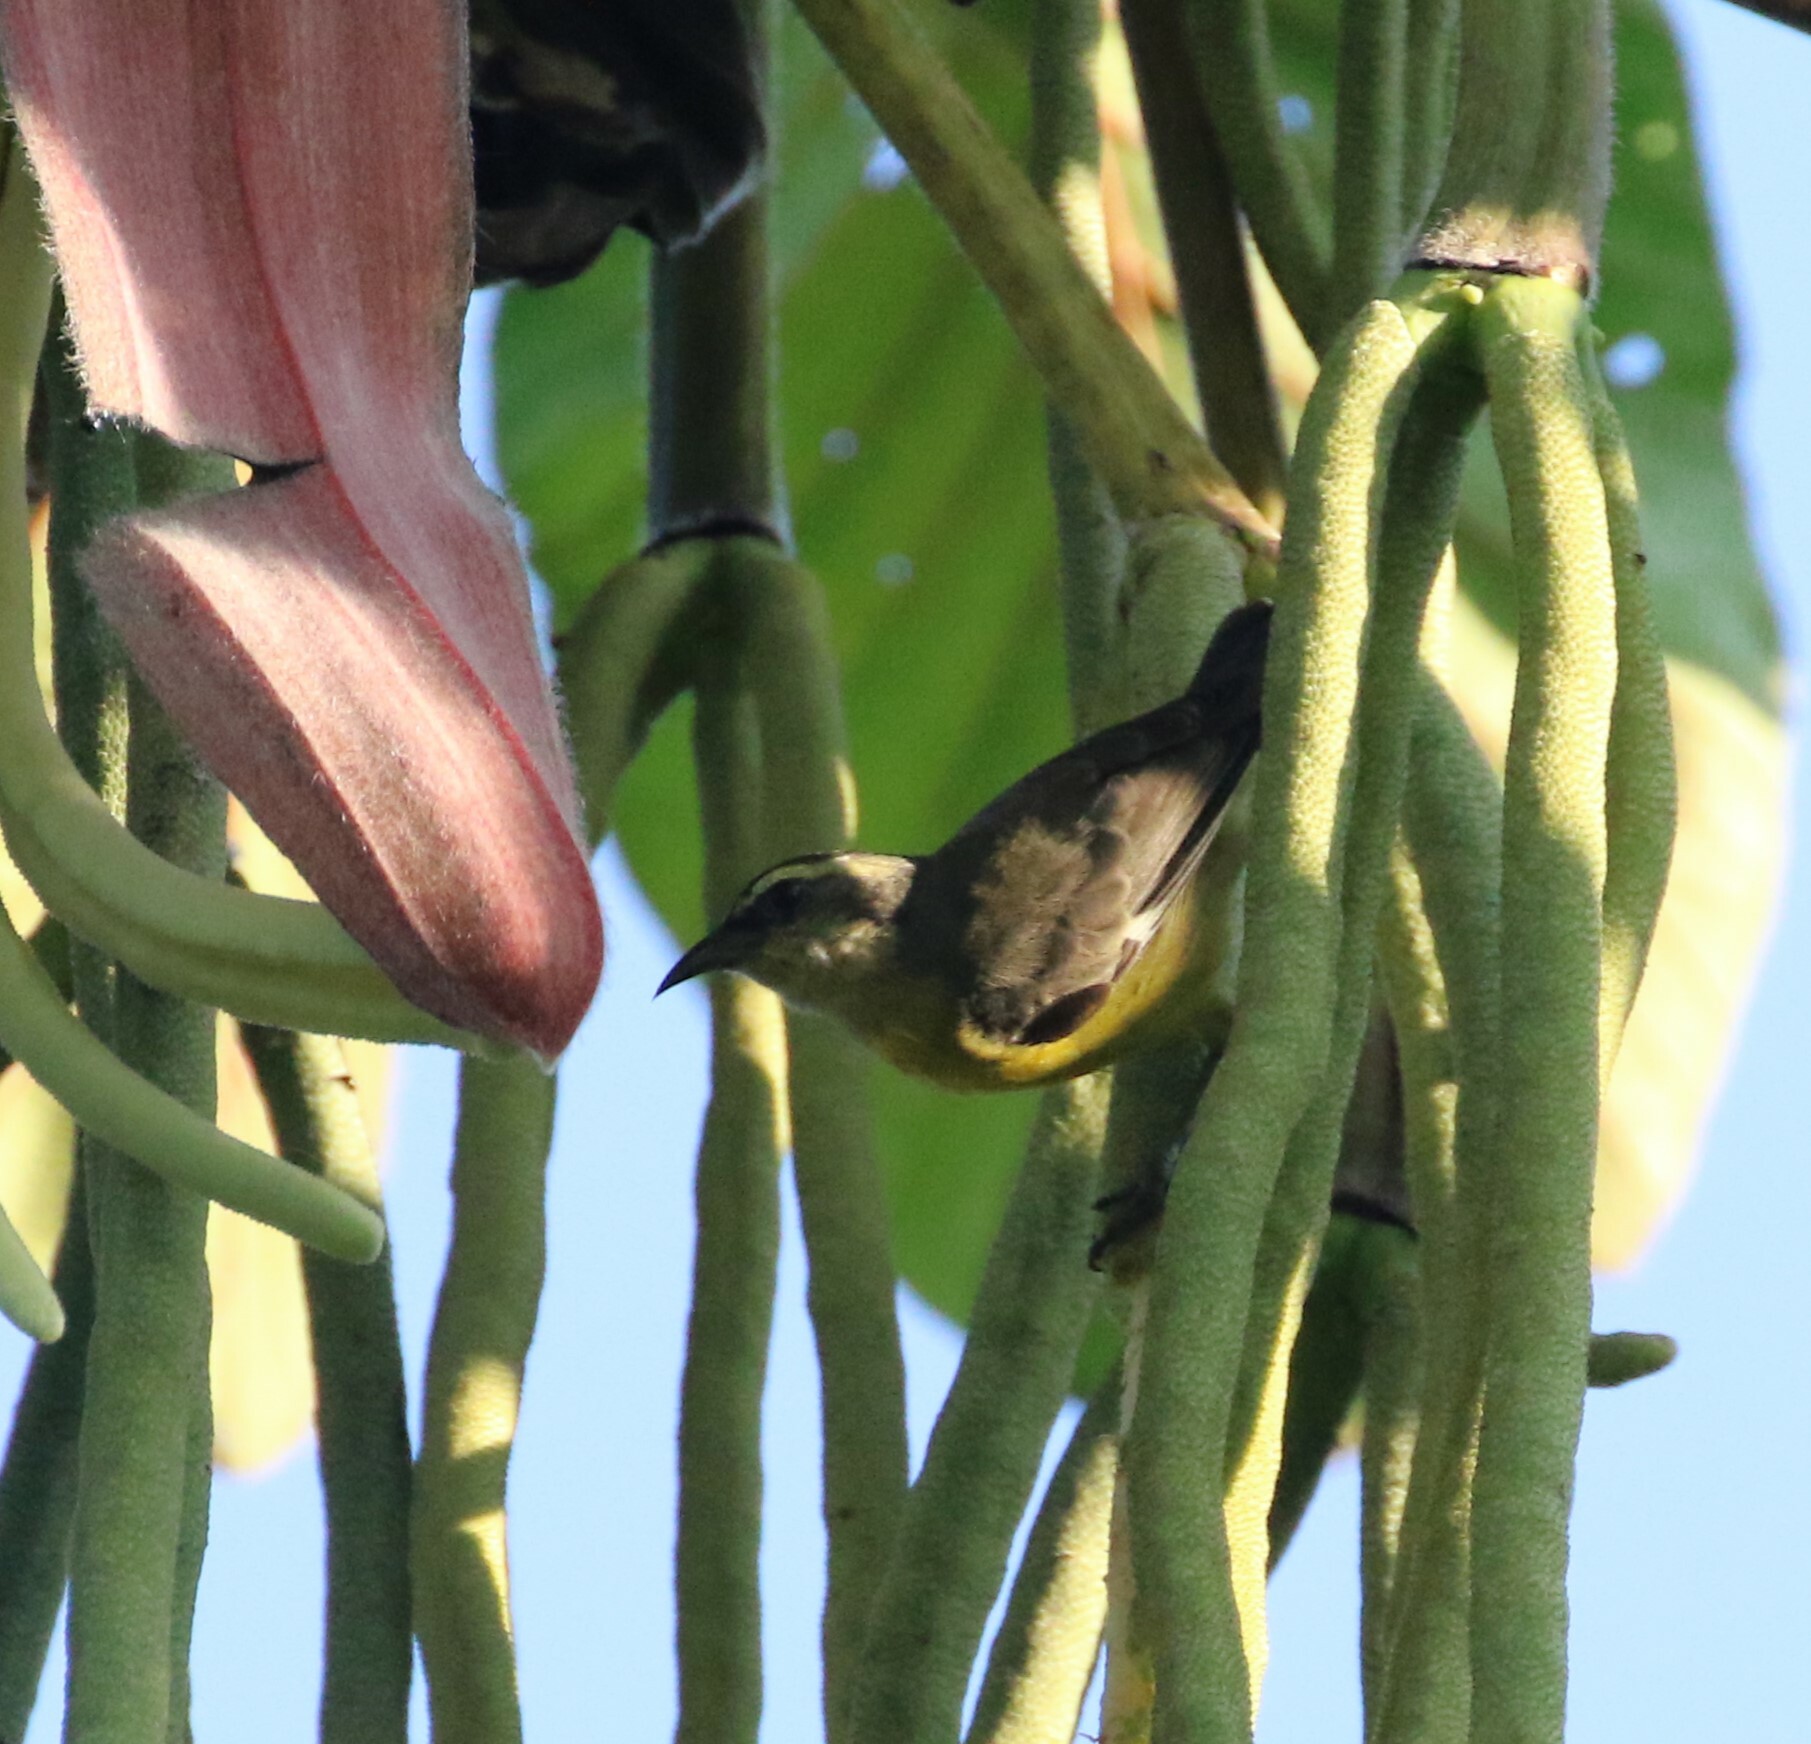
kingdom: Animalia
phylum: Chordata
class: Aves
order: Passeriformes
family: Thraupidae
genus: Coereba
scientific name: Coereba flaveola
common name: Bananaquit
